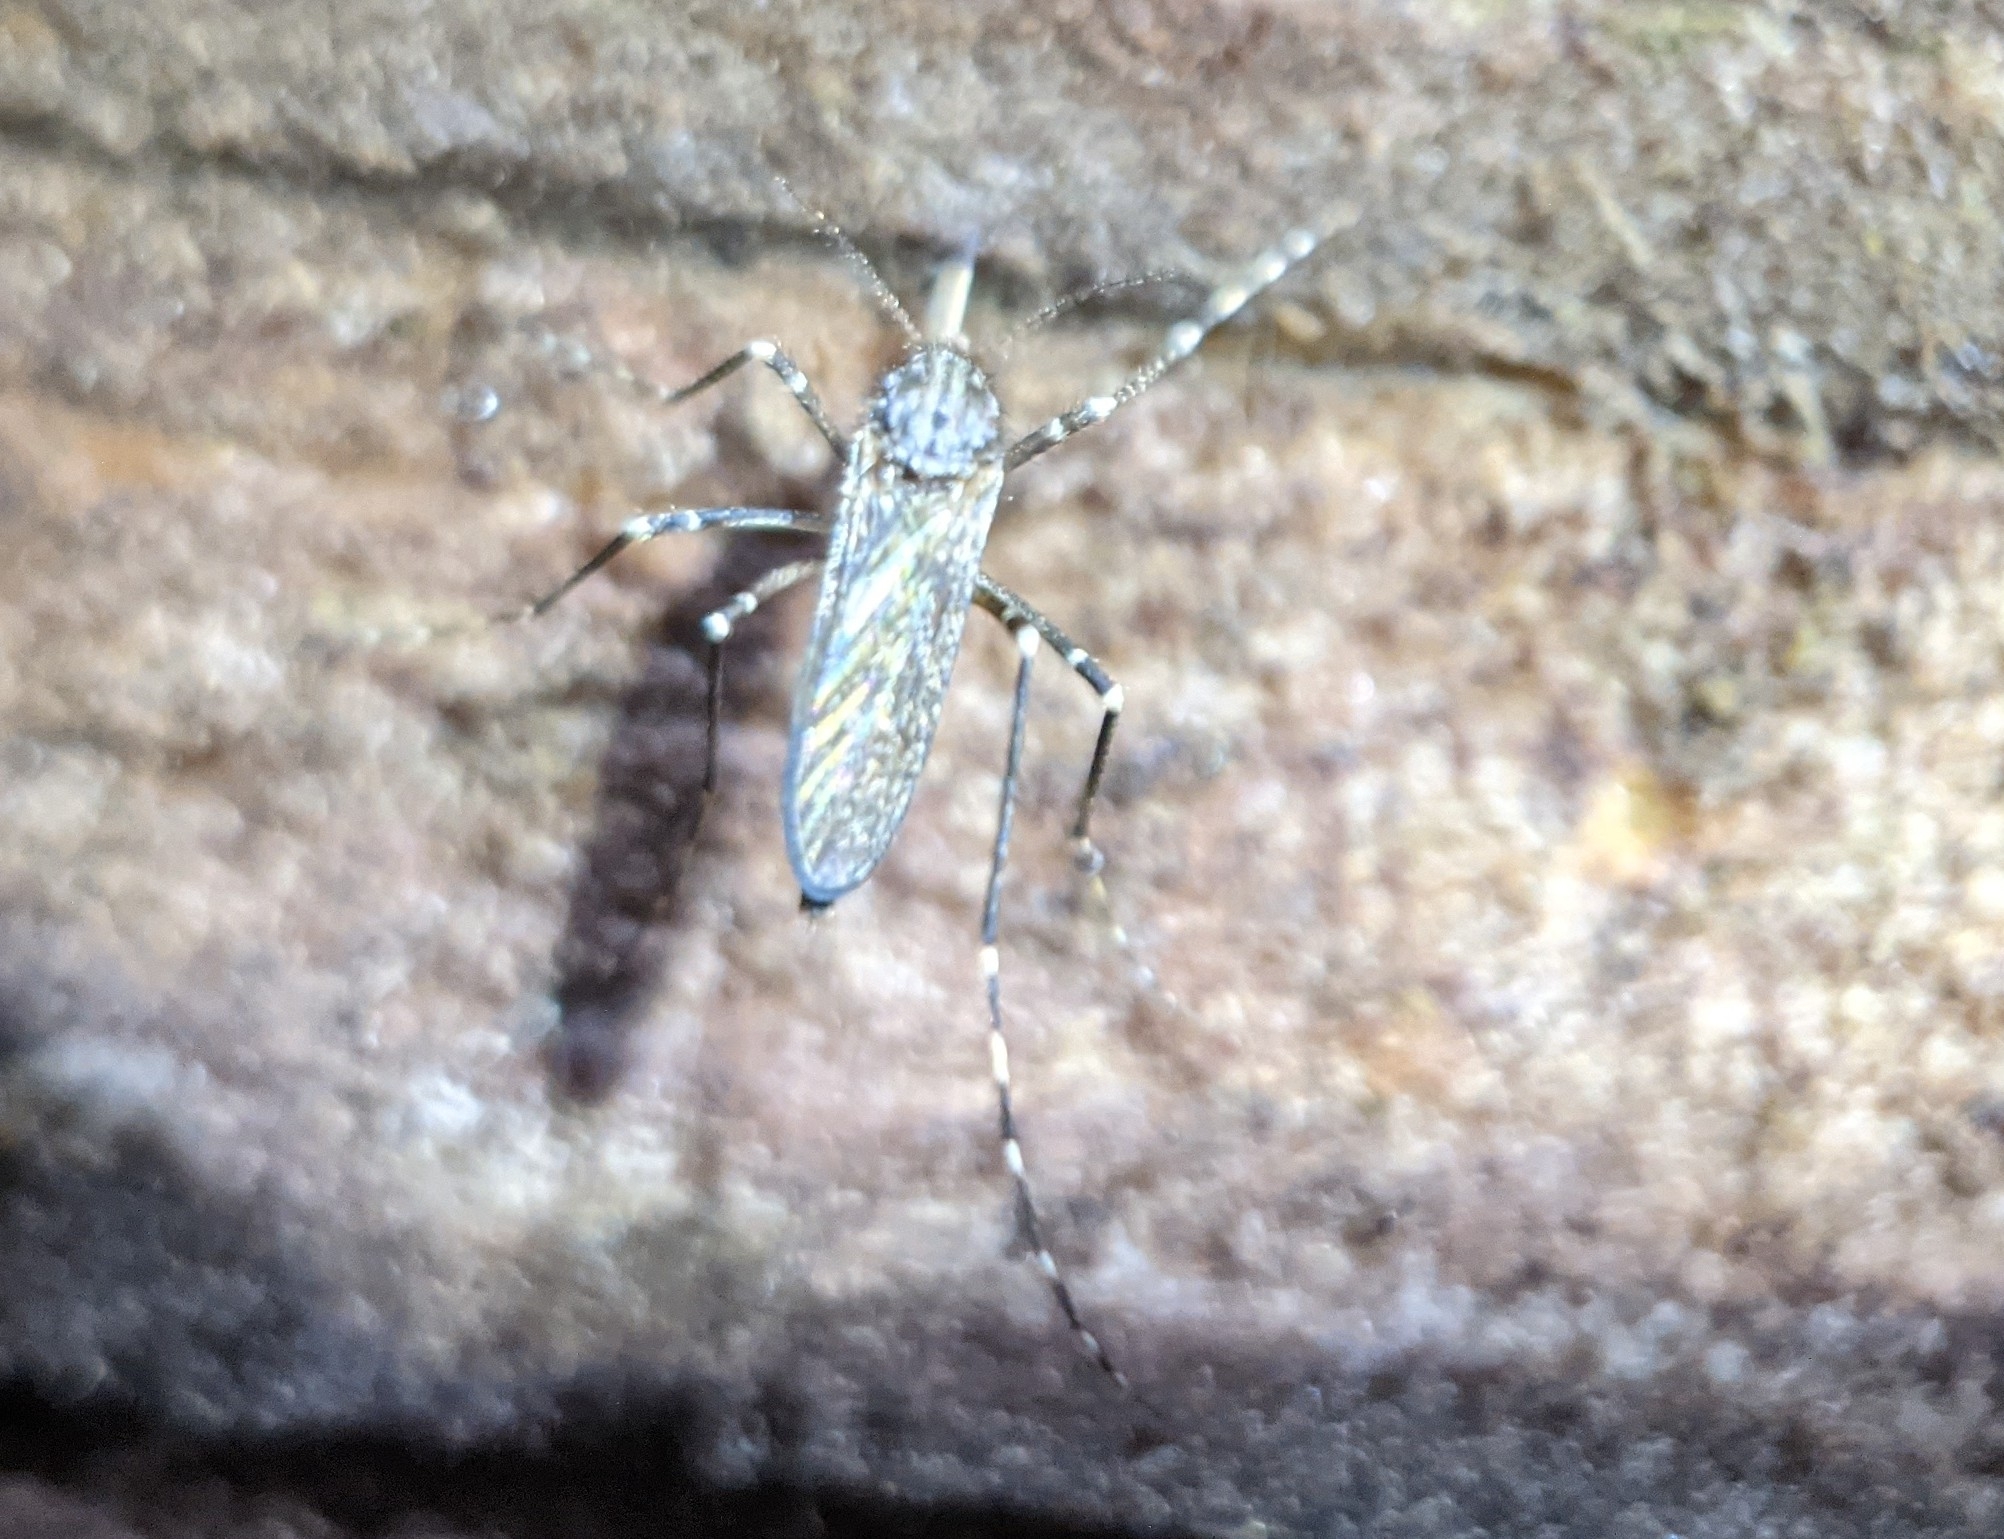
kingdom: Animalia
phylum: Arthropoda
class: Insecta
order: Diptera
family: Culicidae
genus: Psorophora
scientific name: Psorophora columbiae
